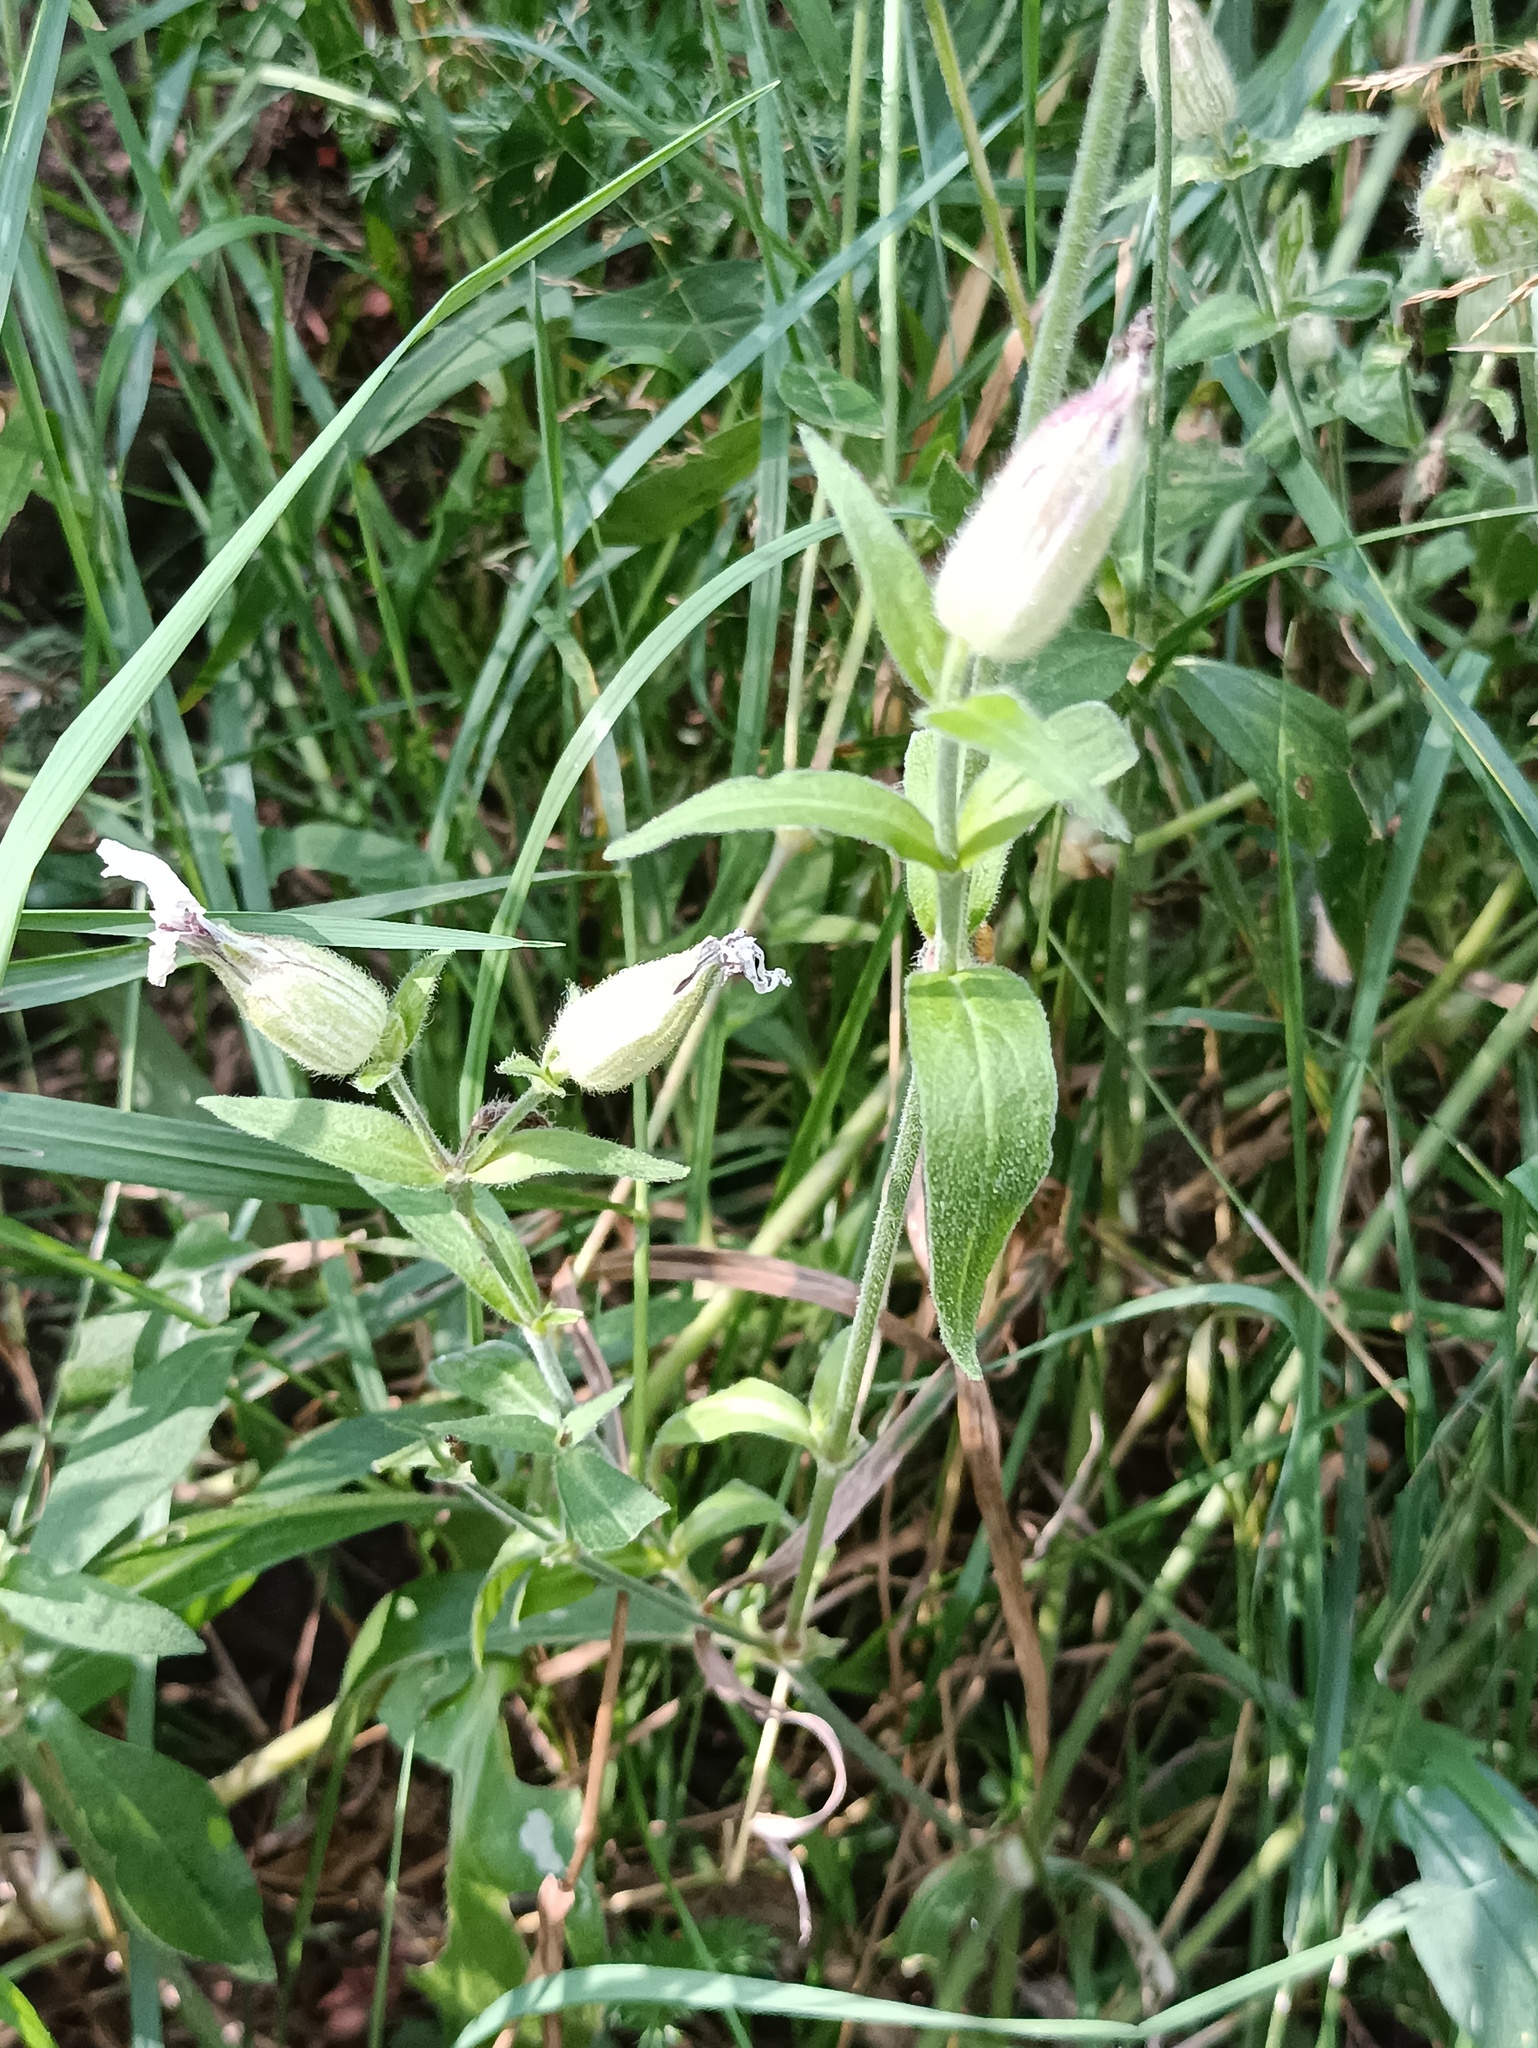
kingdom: Plantae
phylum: Tracheophyta
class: Magnoliopsida
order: Caryophyllales
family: Caryophyllaceae
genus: Silene
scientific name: Silene latifolia
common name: White campion
